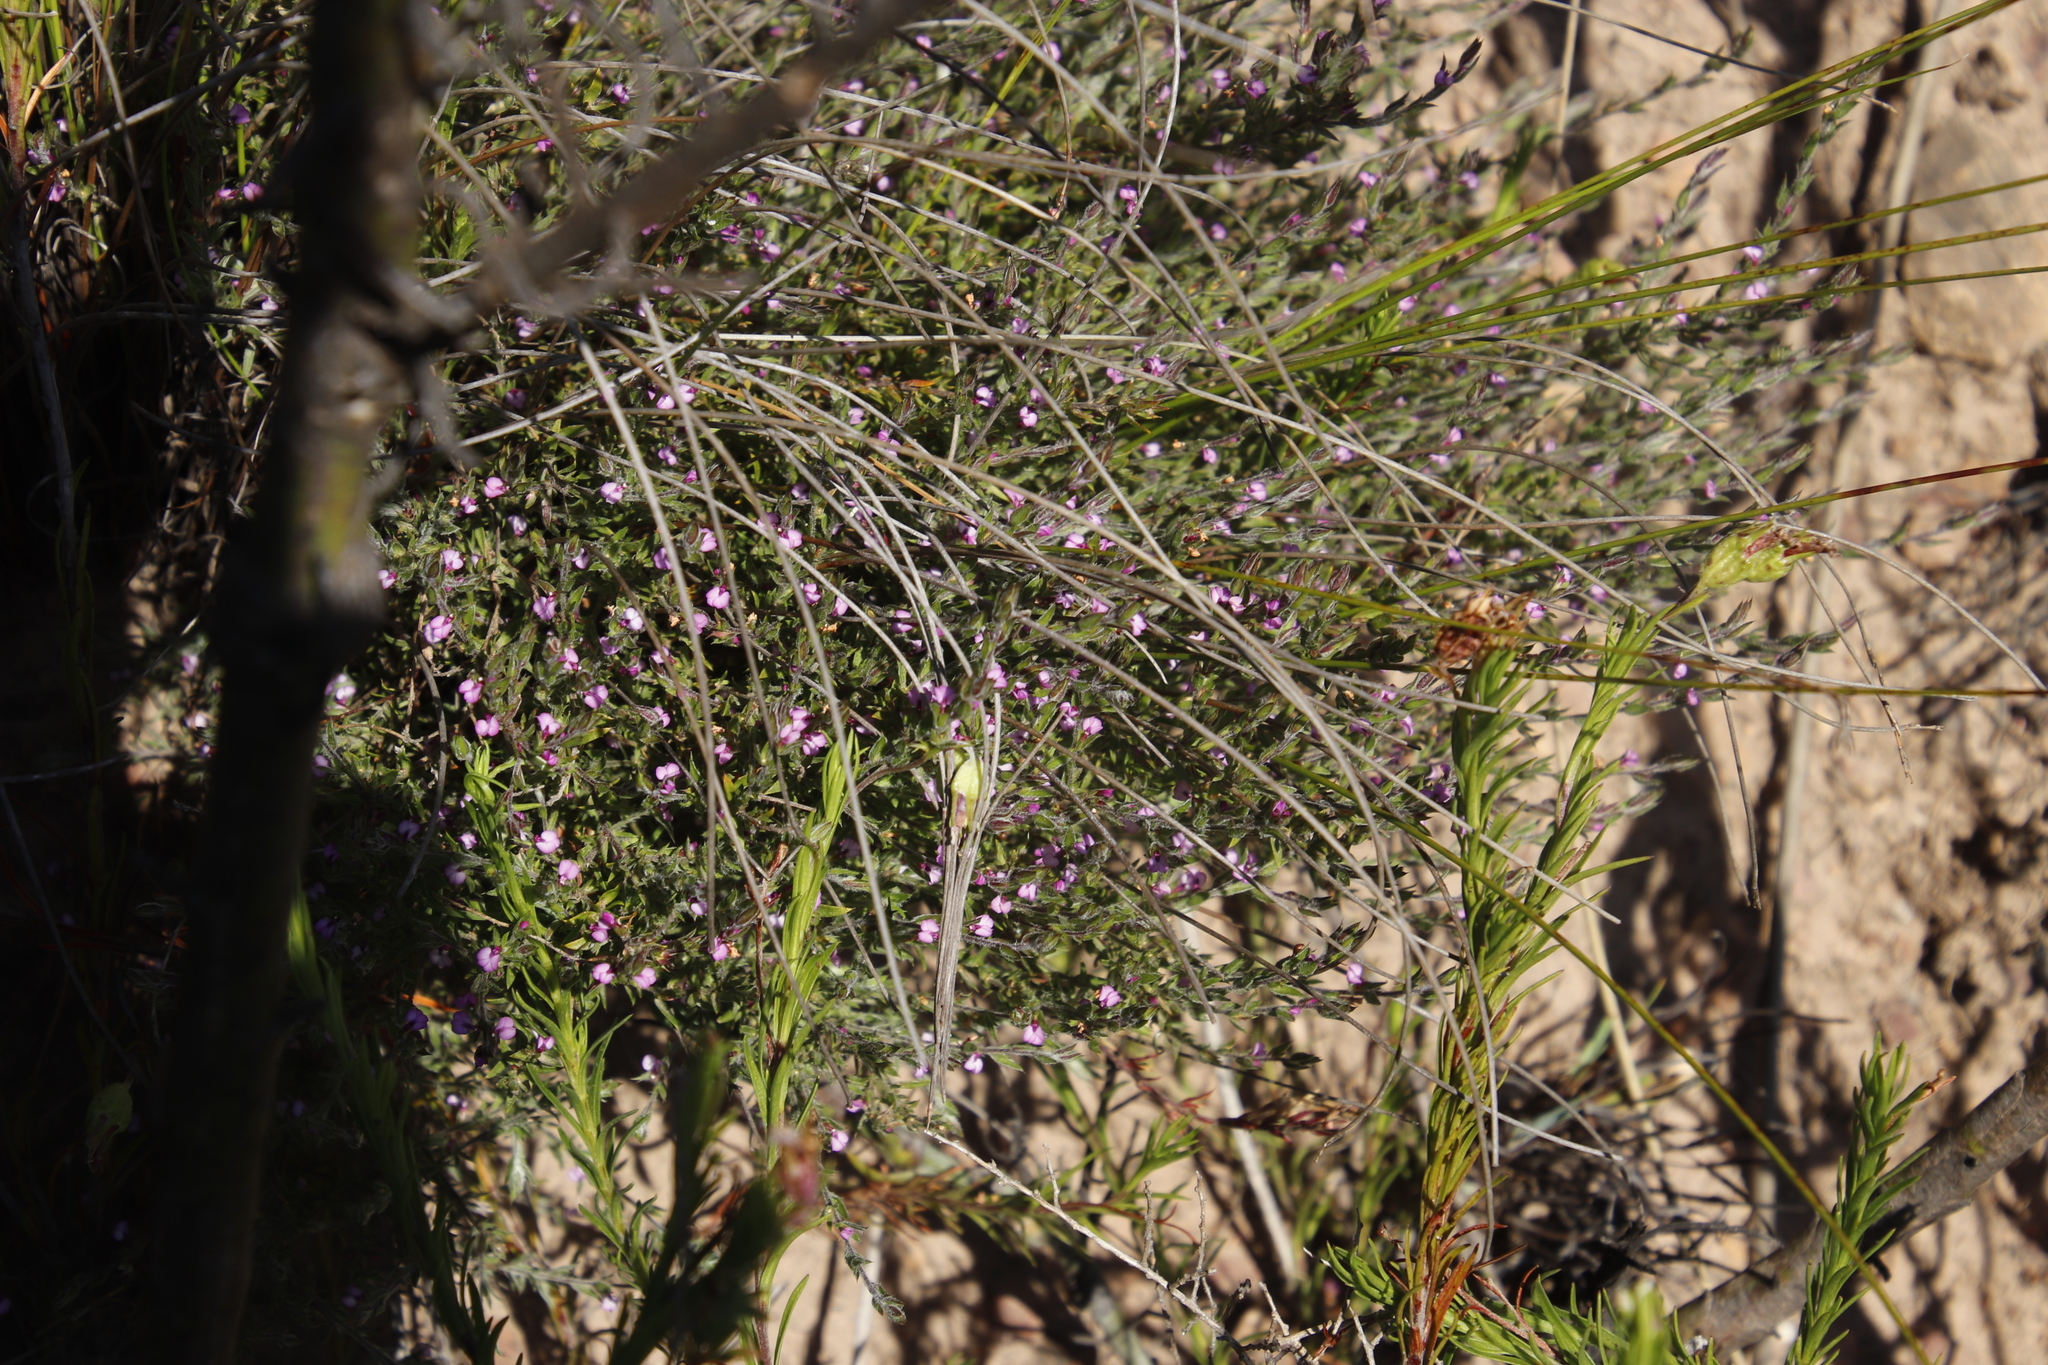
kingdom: Plantae
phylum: Tracheophyta
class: Magnoliopsida
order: Fabales
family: Polygalaceae
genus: Muraltia
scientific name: Muraltia stipulacea
